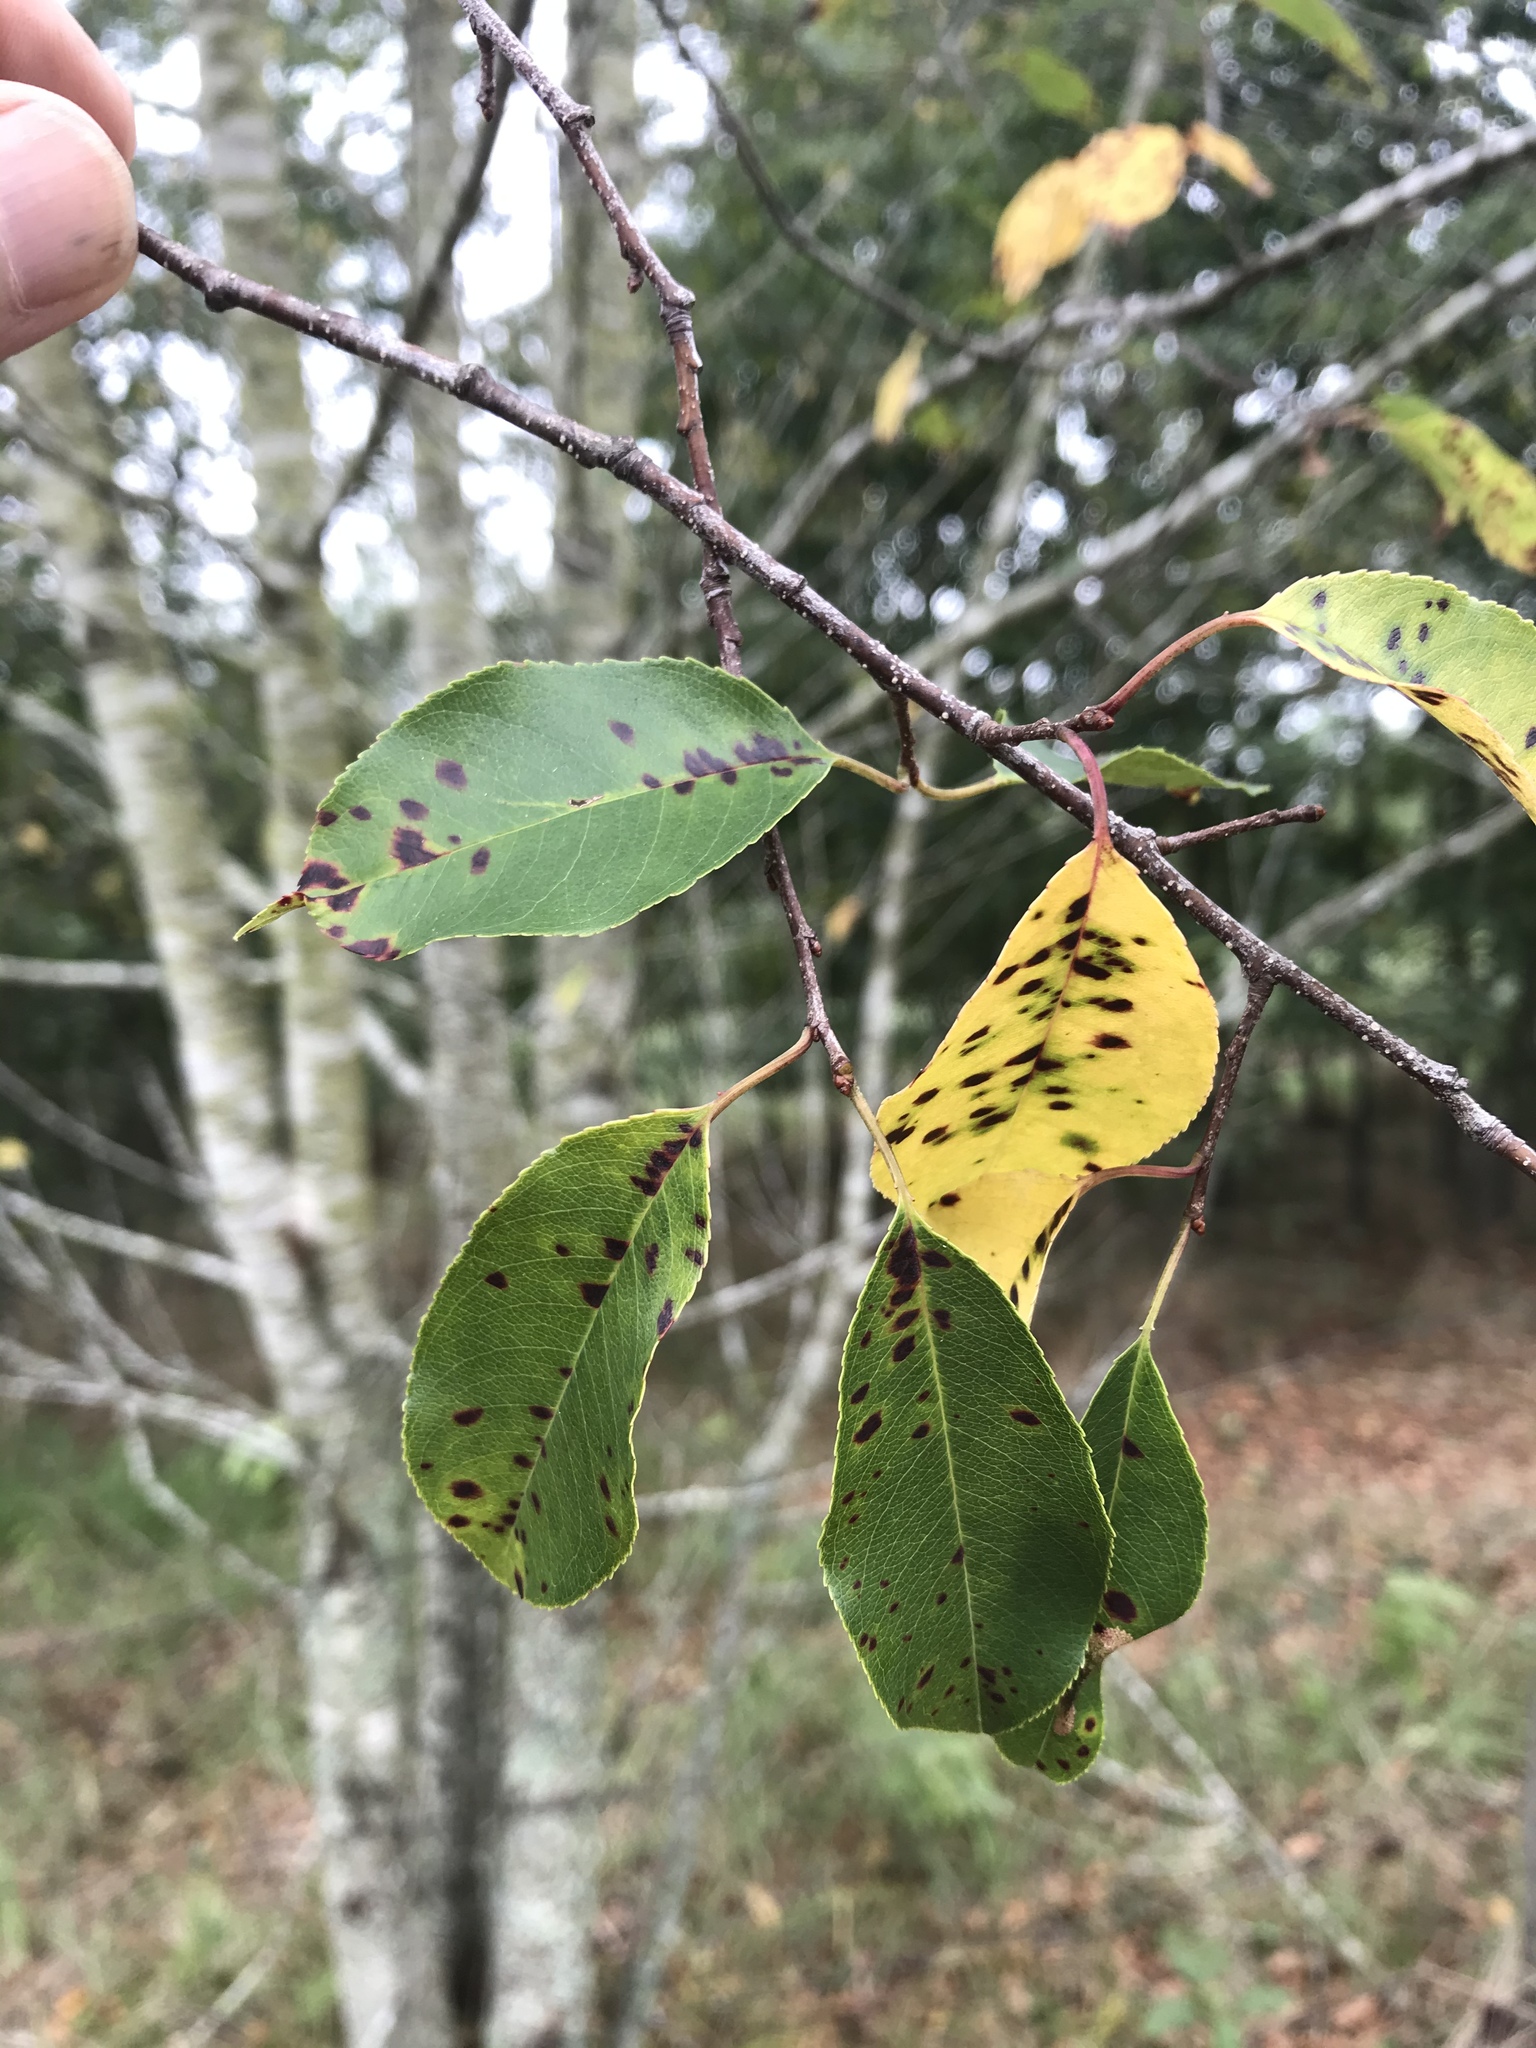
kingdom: Plantae
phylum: Tracheophyta
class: Magnoliopsida
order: Rosales
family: Rosaceae
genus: Prunus
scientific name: Prunus serotina
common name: Black cherry
